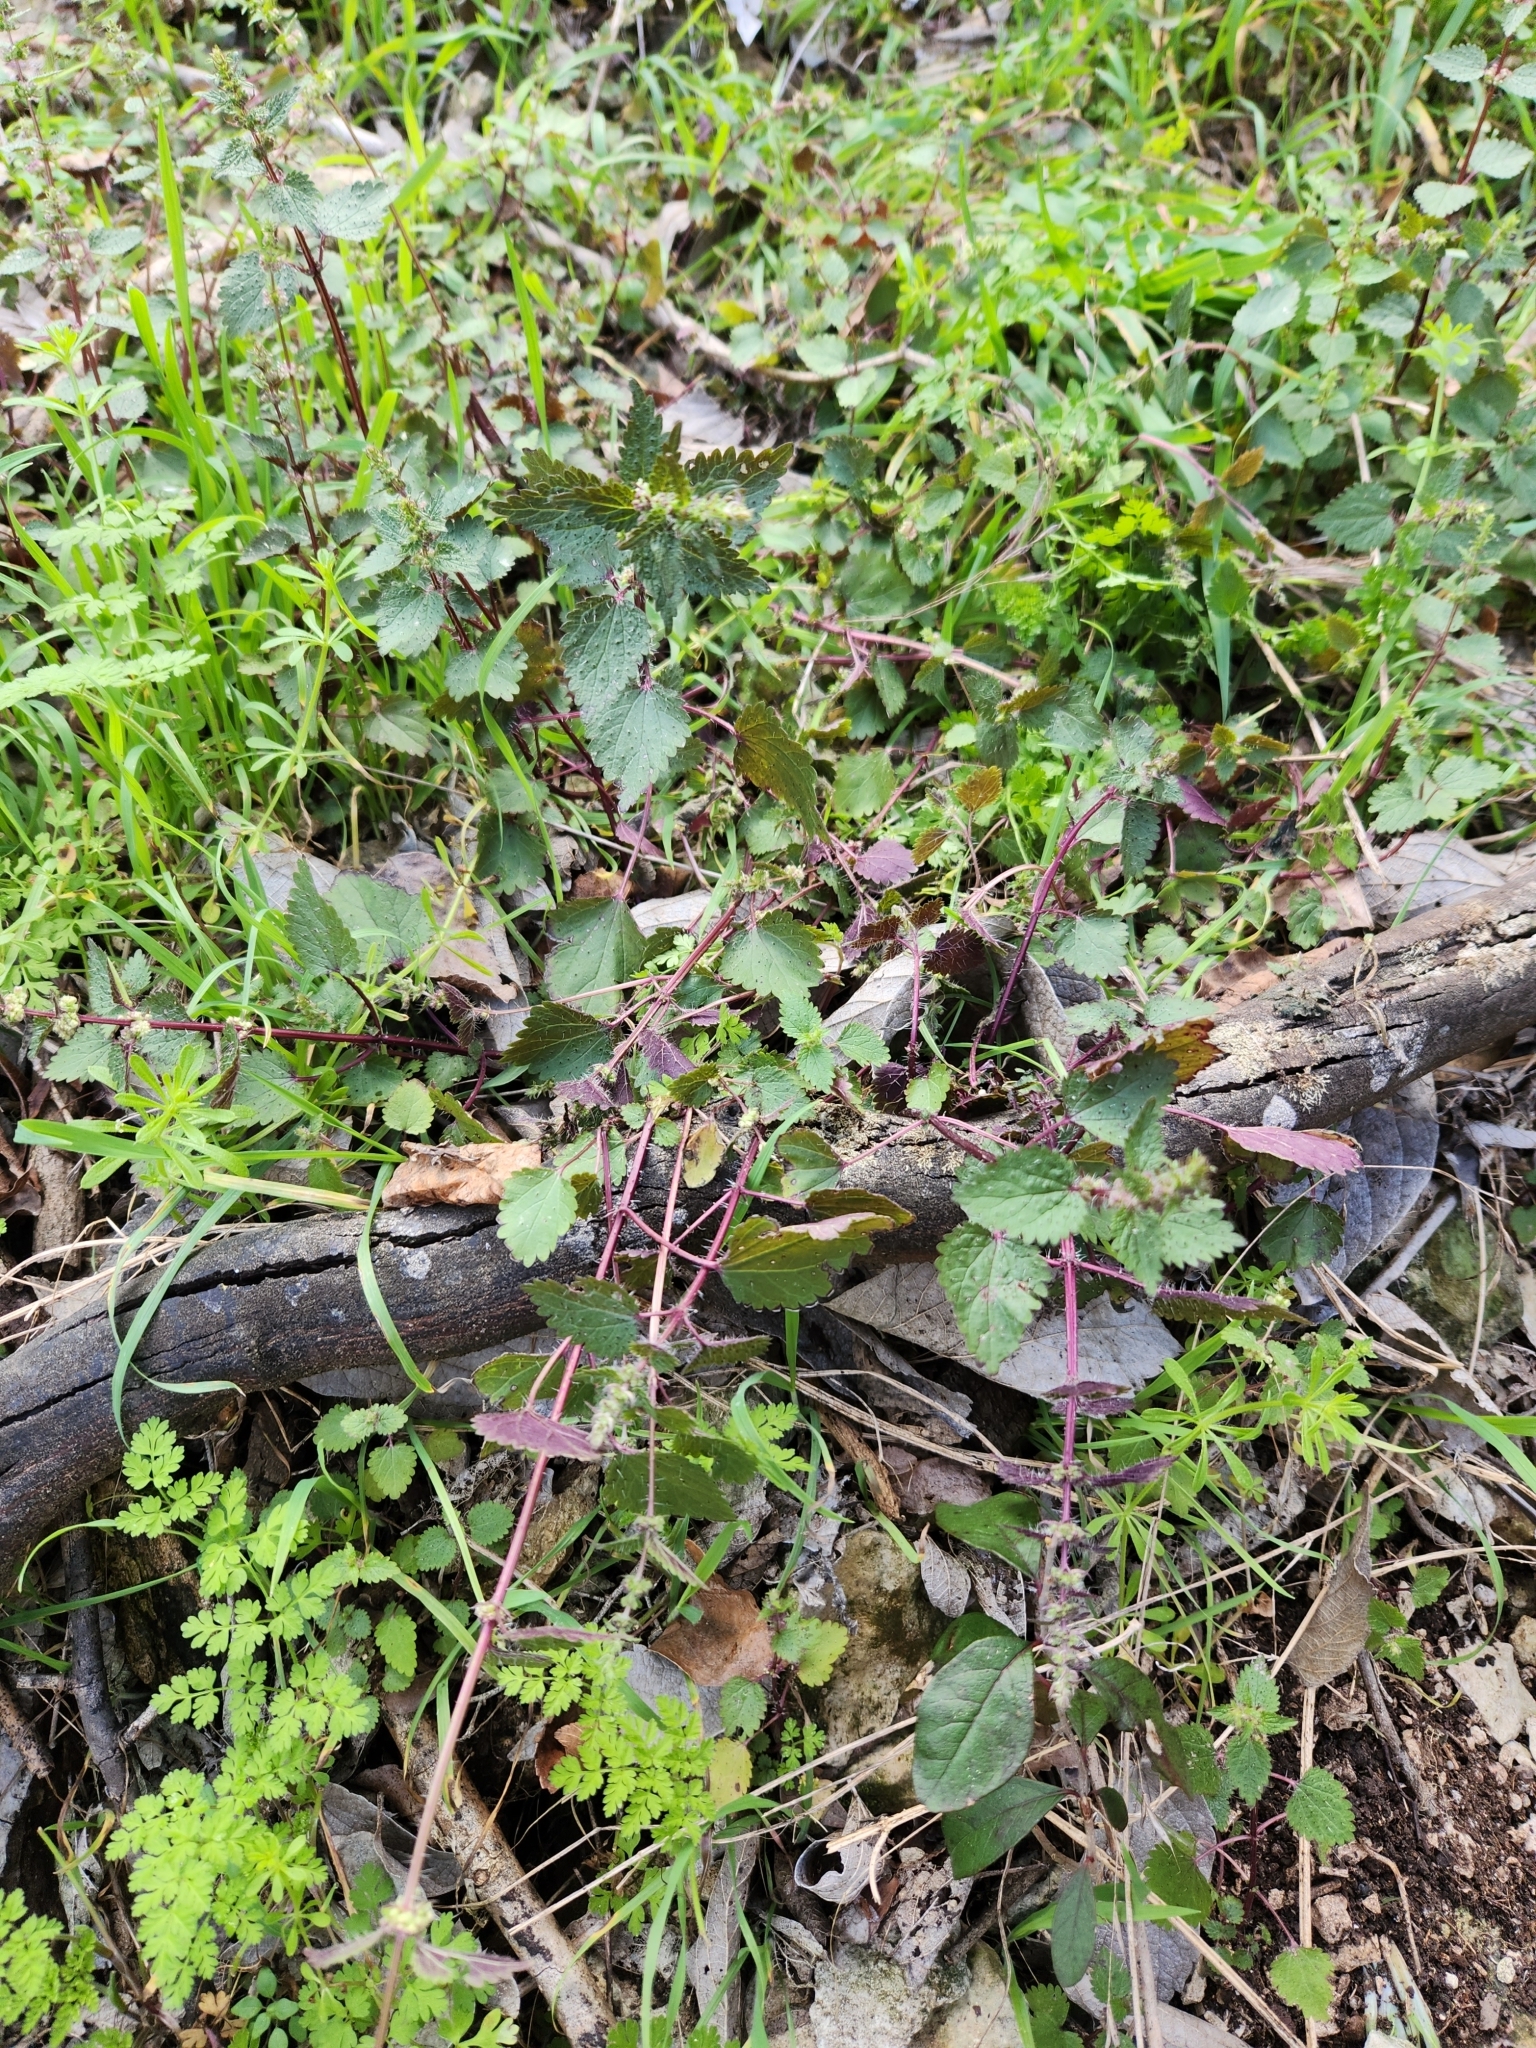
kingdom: Plantae
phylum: Tracheophyta
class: Magnoliopsida
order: Rosales
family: Urticaceae
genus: Urtica
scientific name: Urtica chamaedryoides
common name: Heart-leaf nettle
